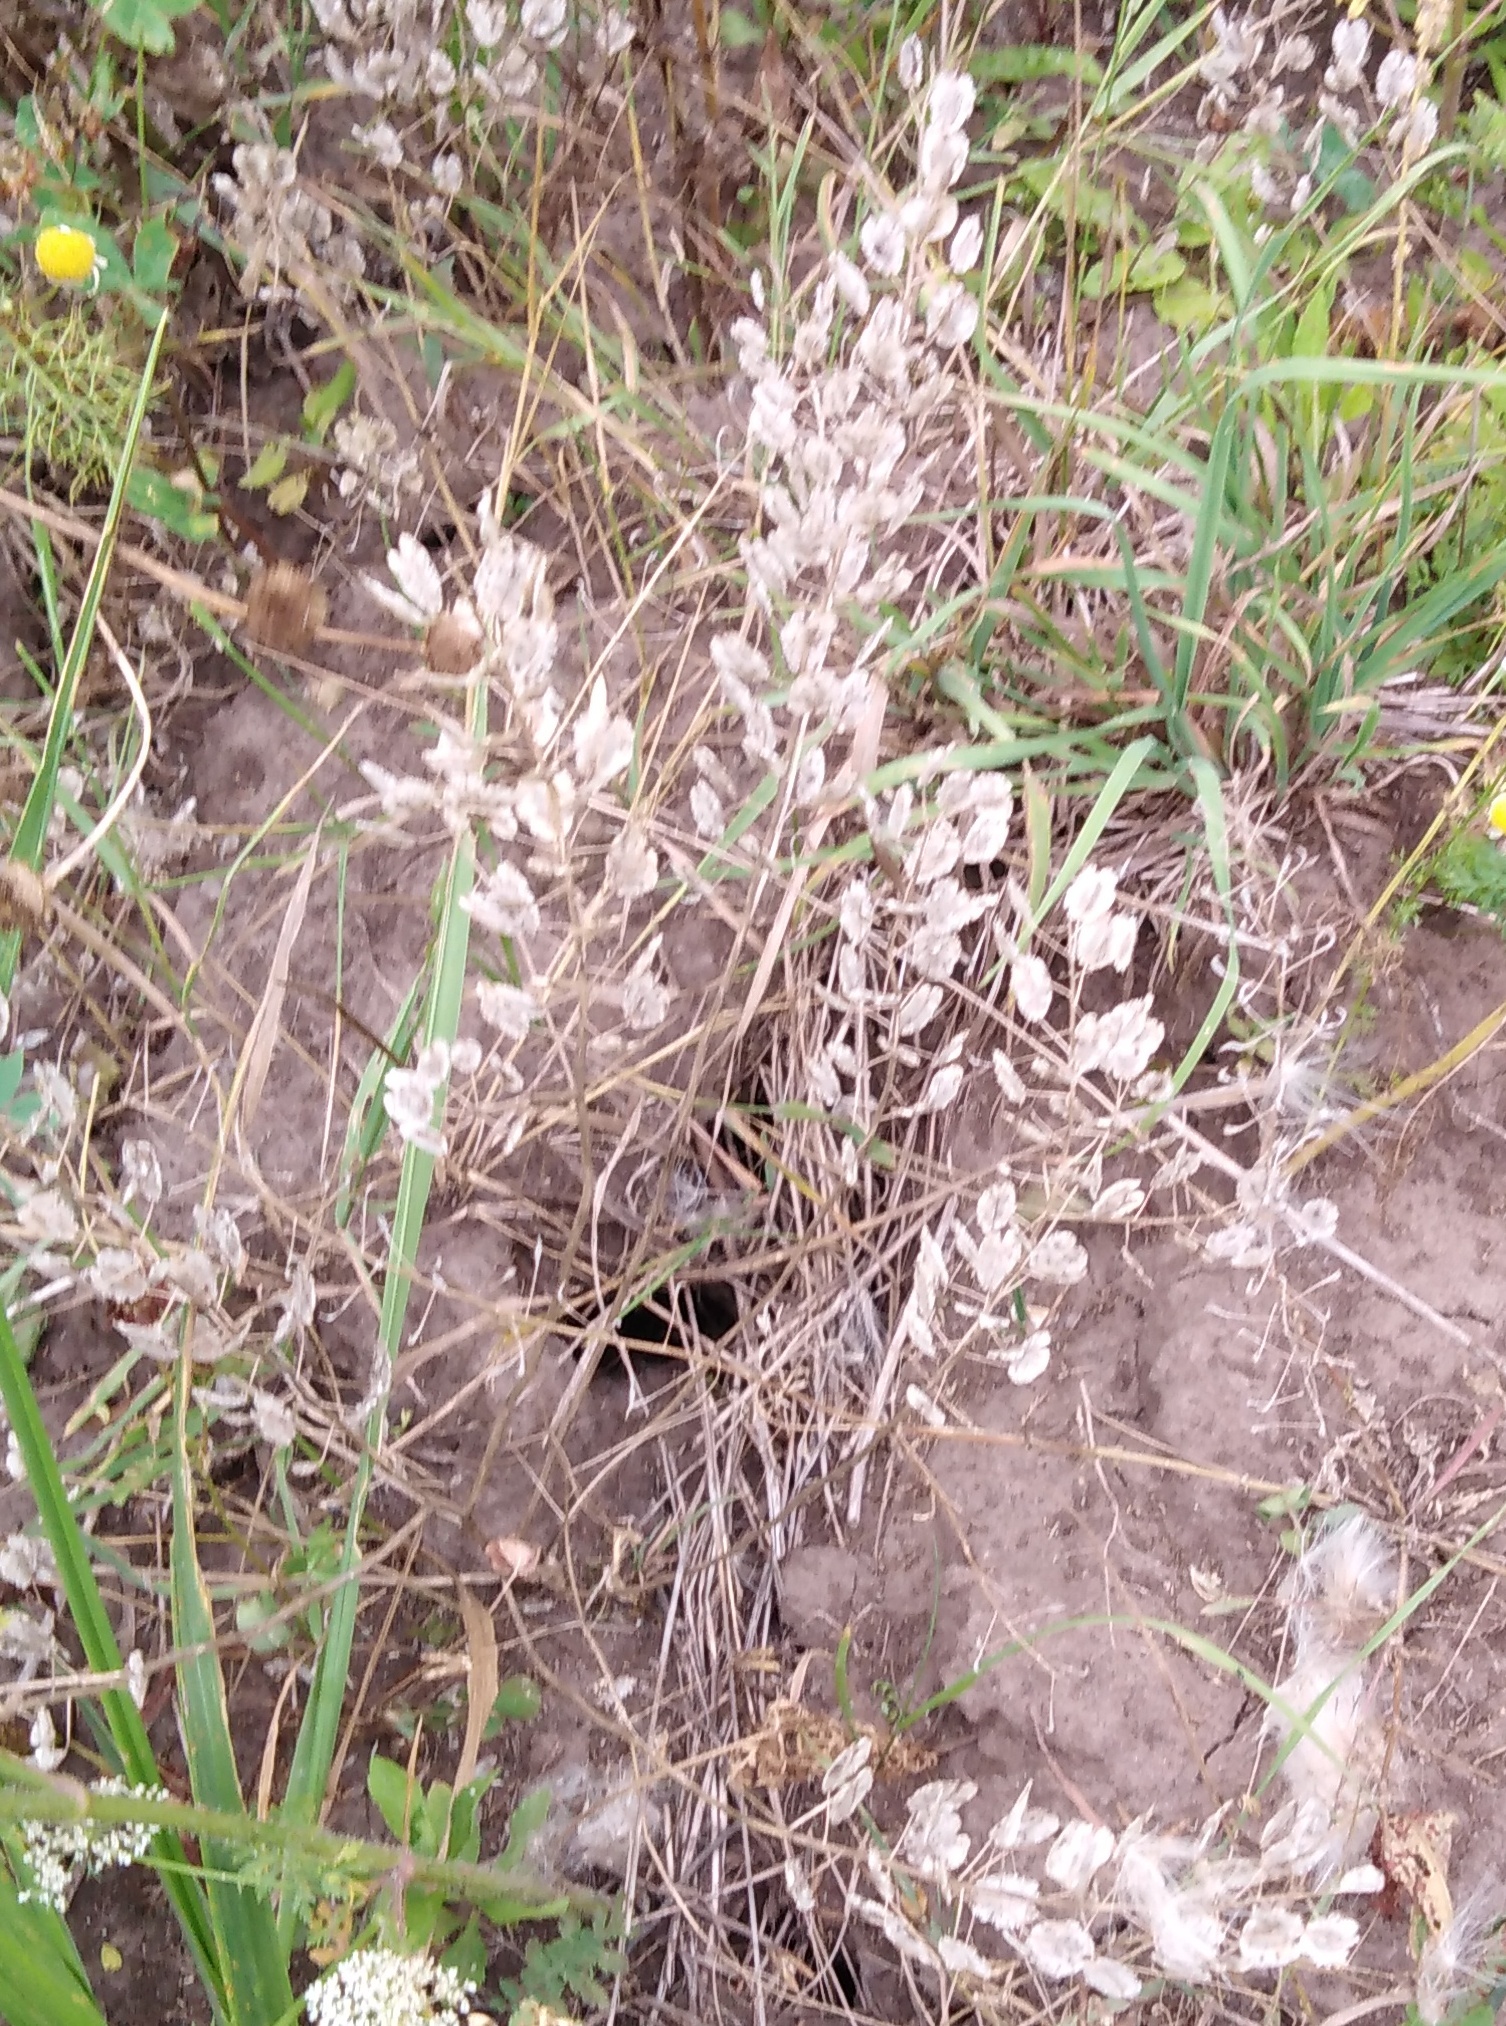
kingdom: Plantae
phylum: Tracheophyta
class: Magnoliopsida
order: Brassicales
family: Brassicaceae
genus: Thlaspi
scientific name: Thlaspi arvense
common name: Field pennycress
